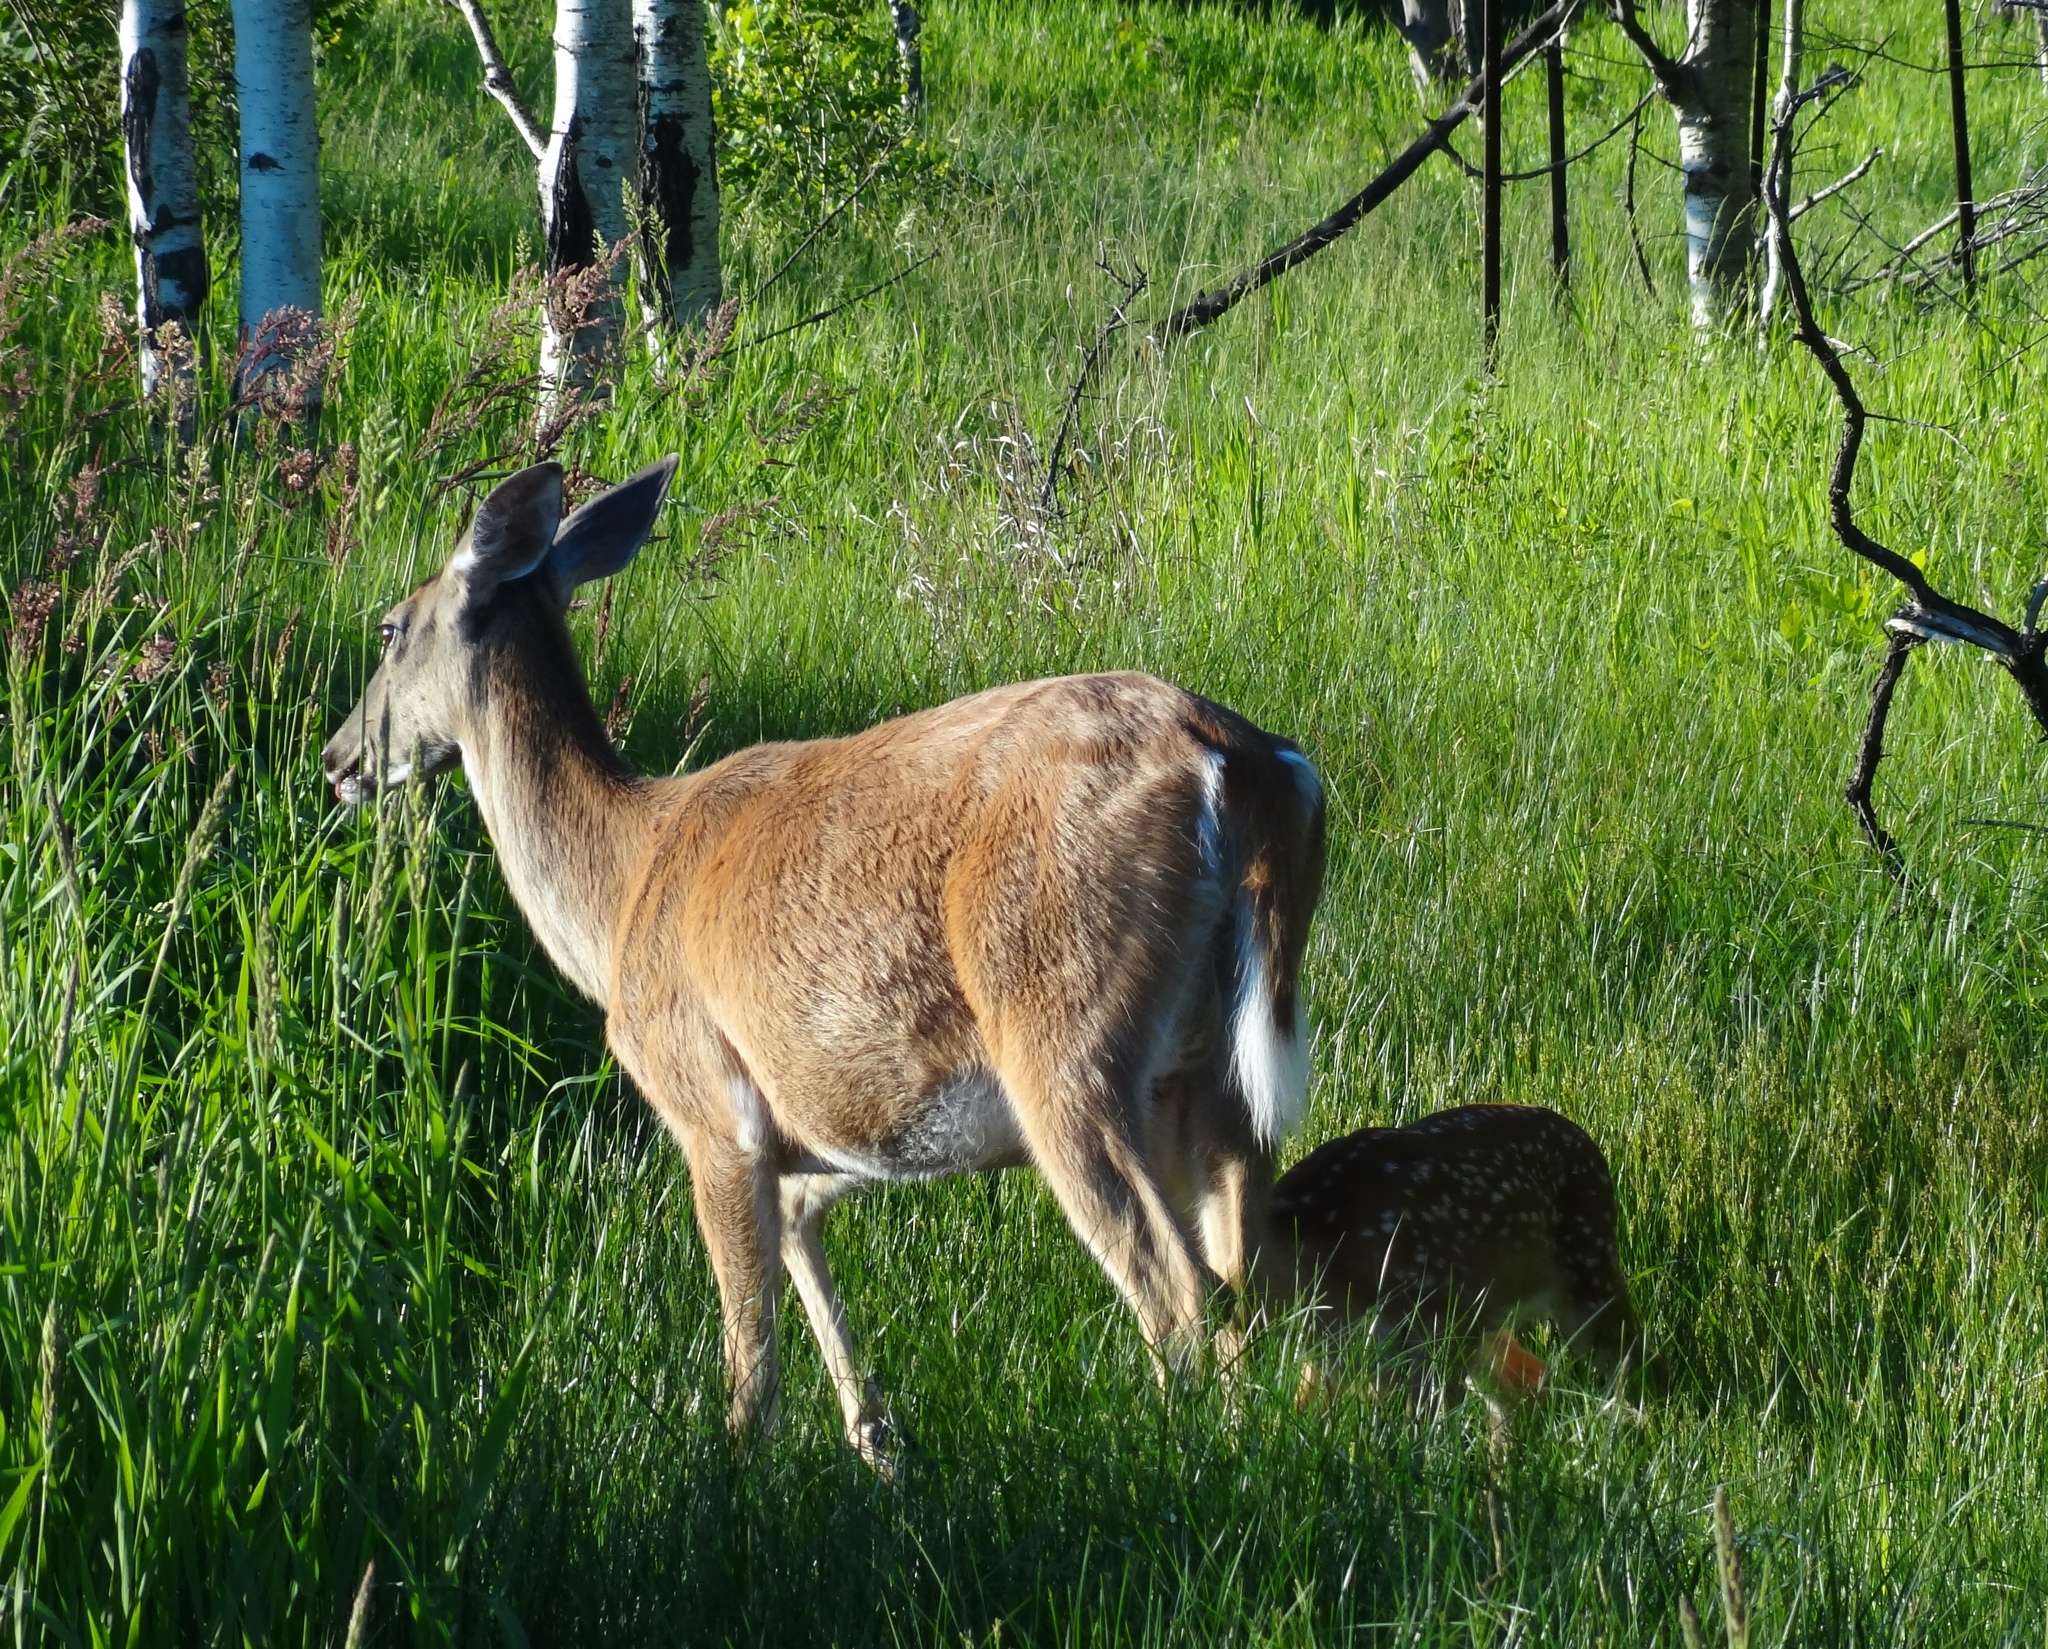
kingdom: Animalia
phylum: Chordata
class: Mammalia
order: Artiodactyla
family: Cervidae
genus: Odocoileus
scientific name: Odocoileus virginianus
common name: White-tailed deer
